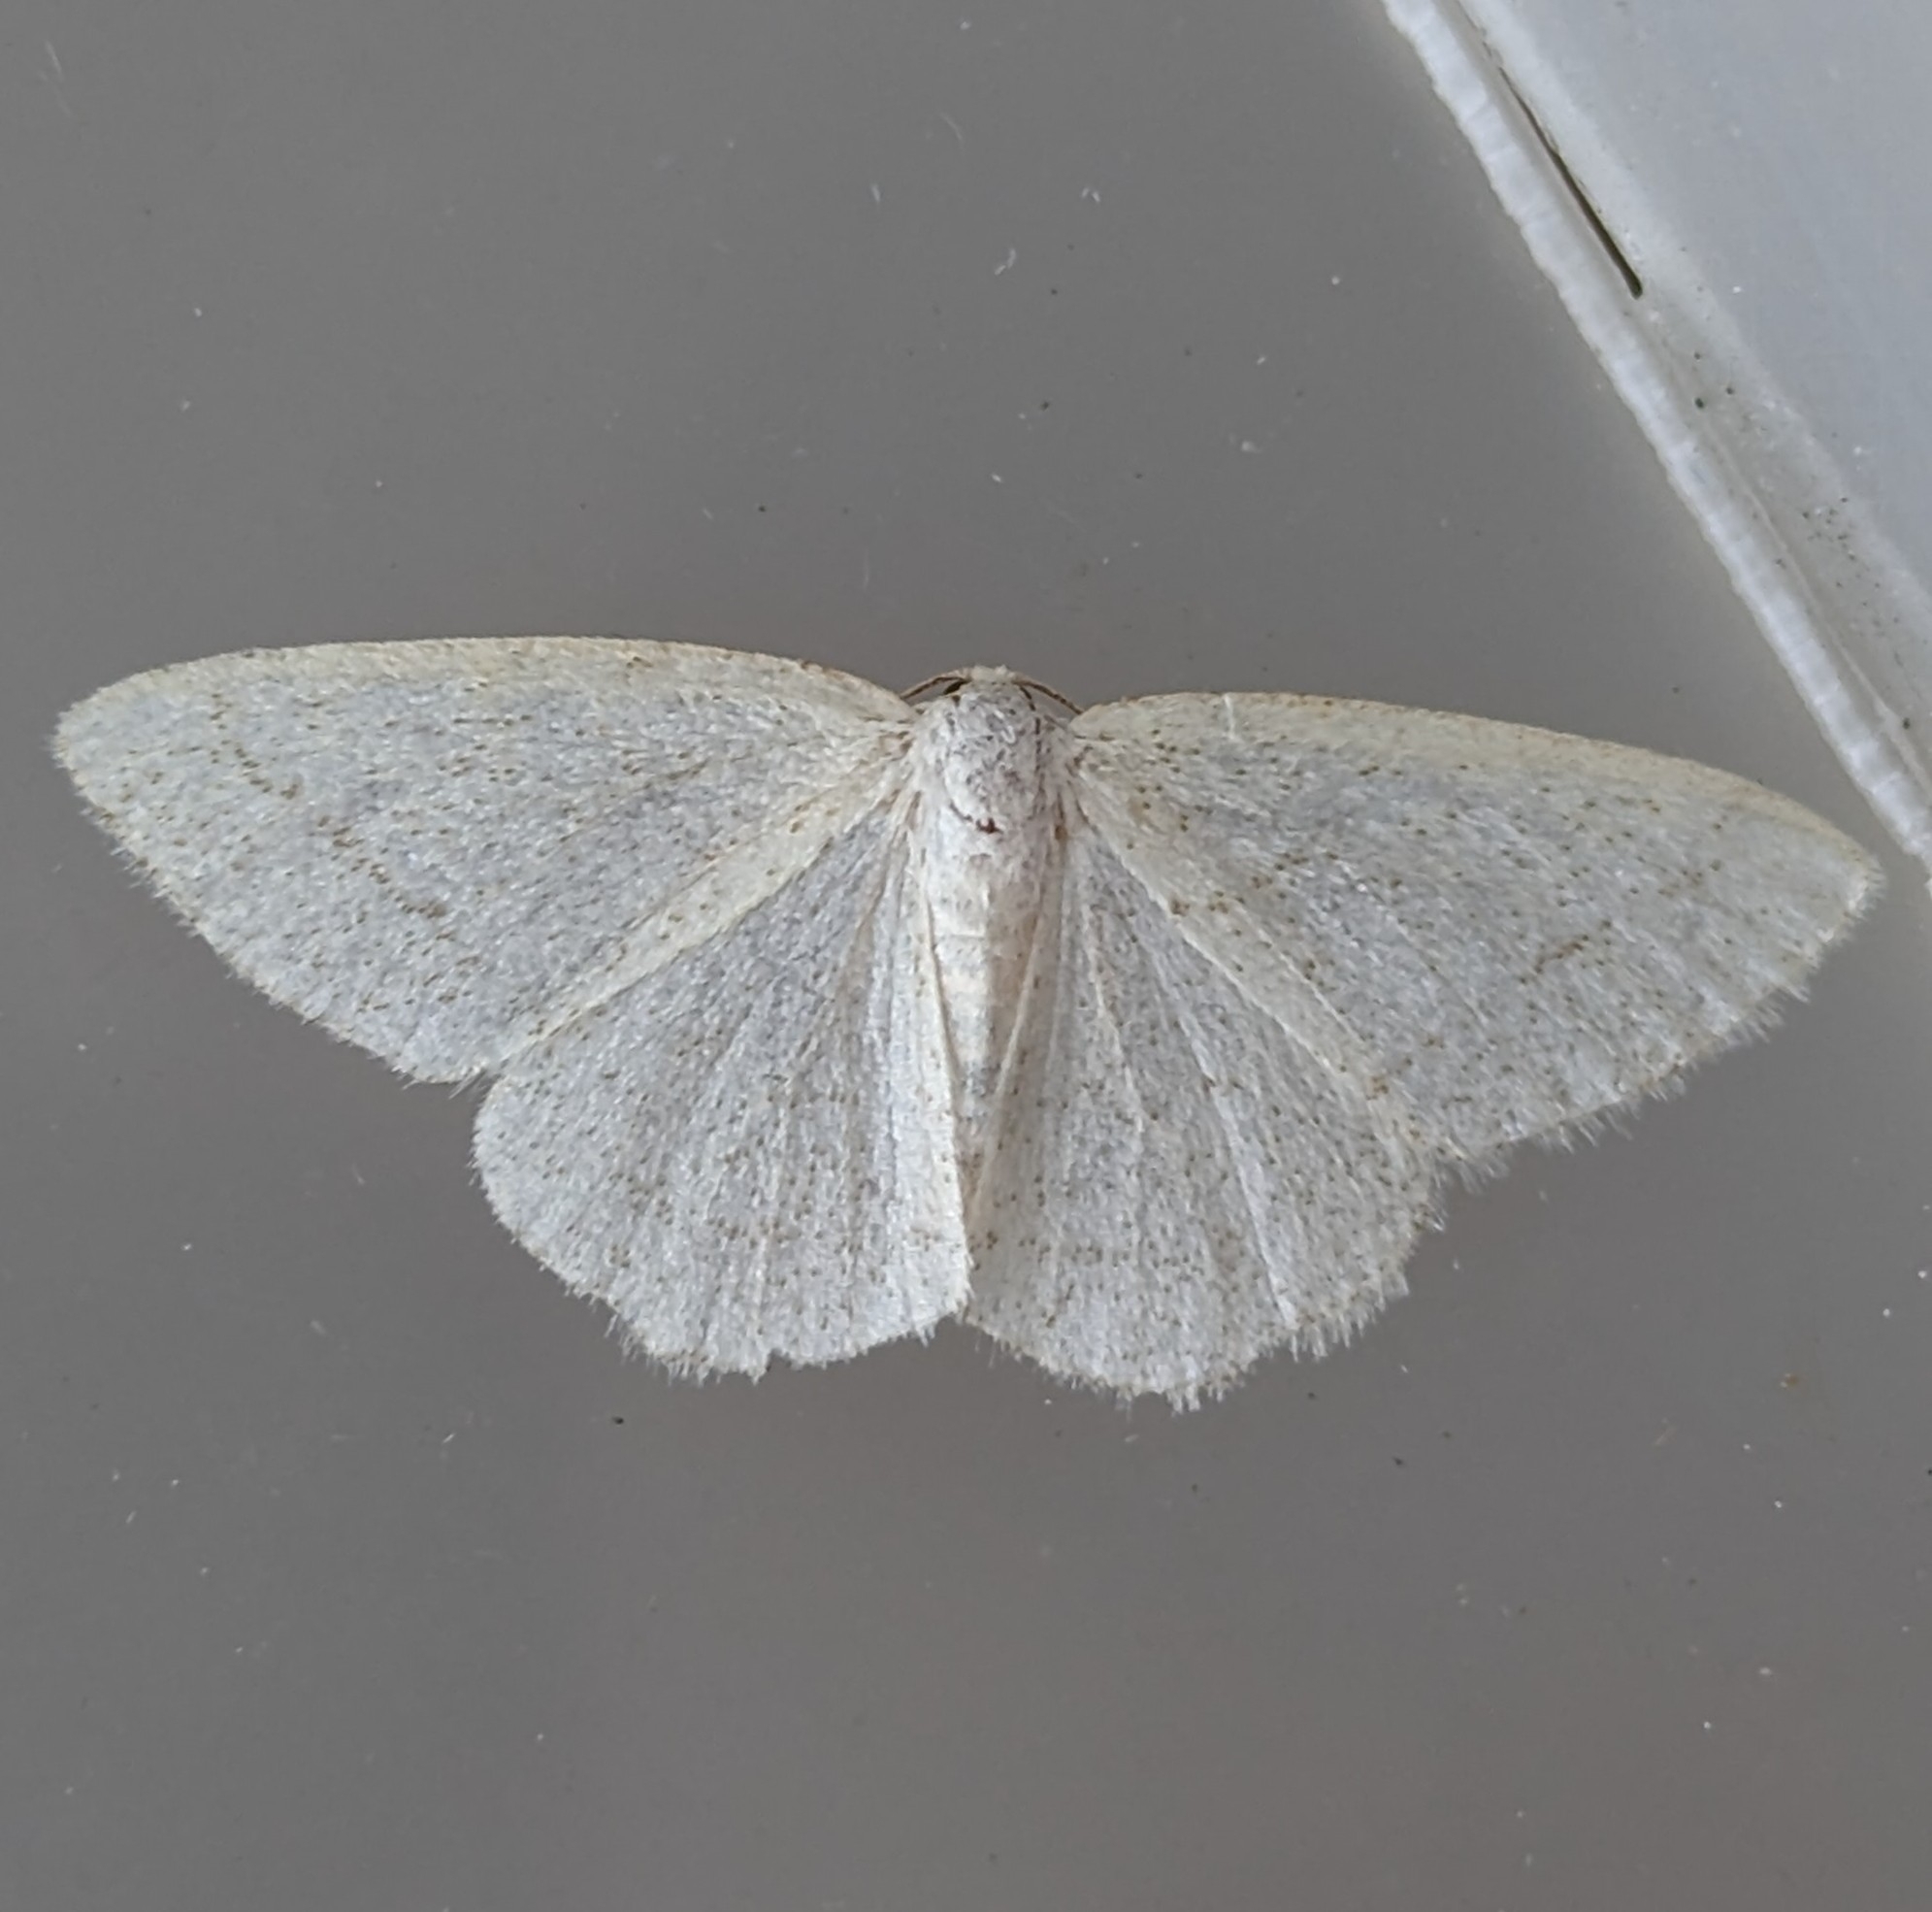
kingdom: Animalia
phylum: Arthropoda
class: Insecta
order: Lepidoptera
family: Geometridae
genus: Protitame
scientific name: Protitame subalbaria
